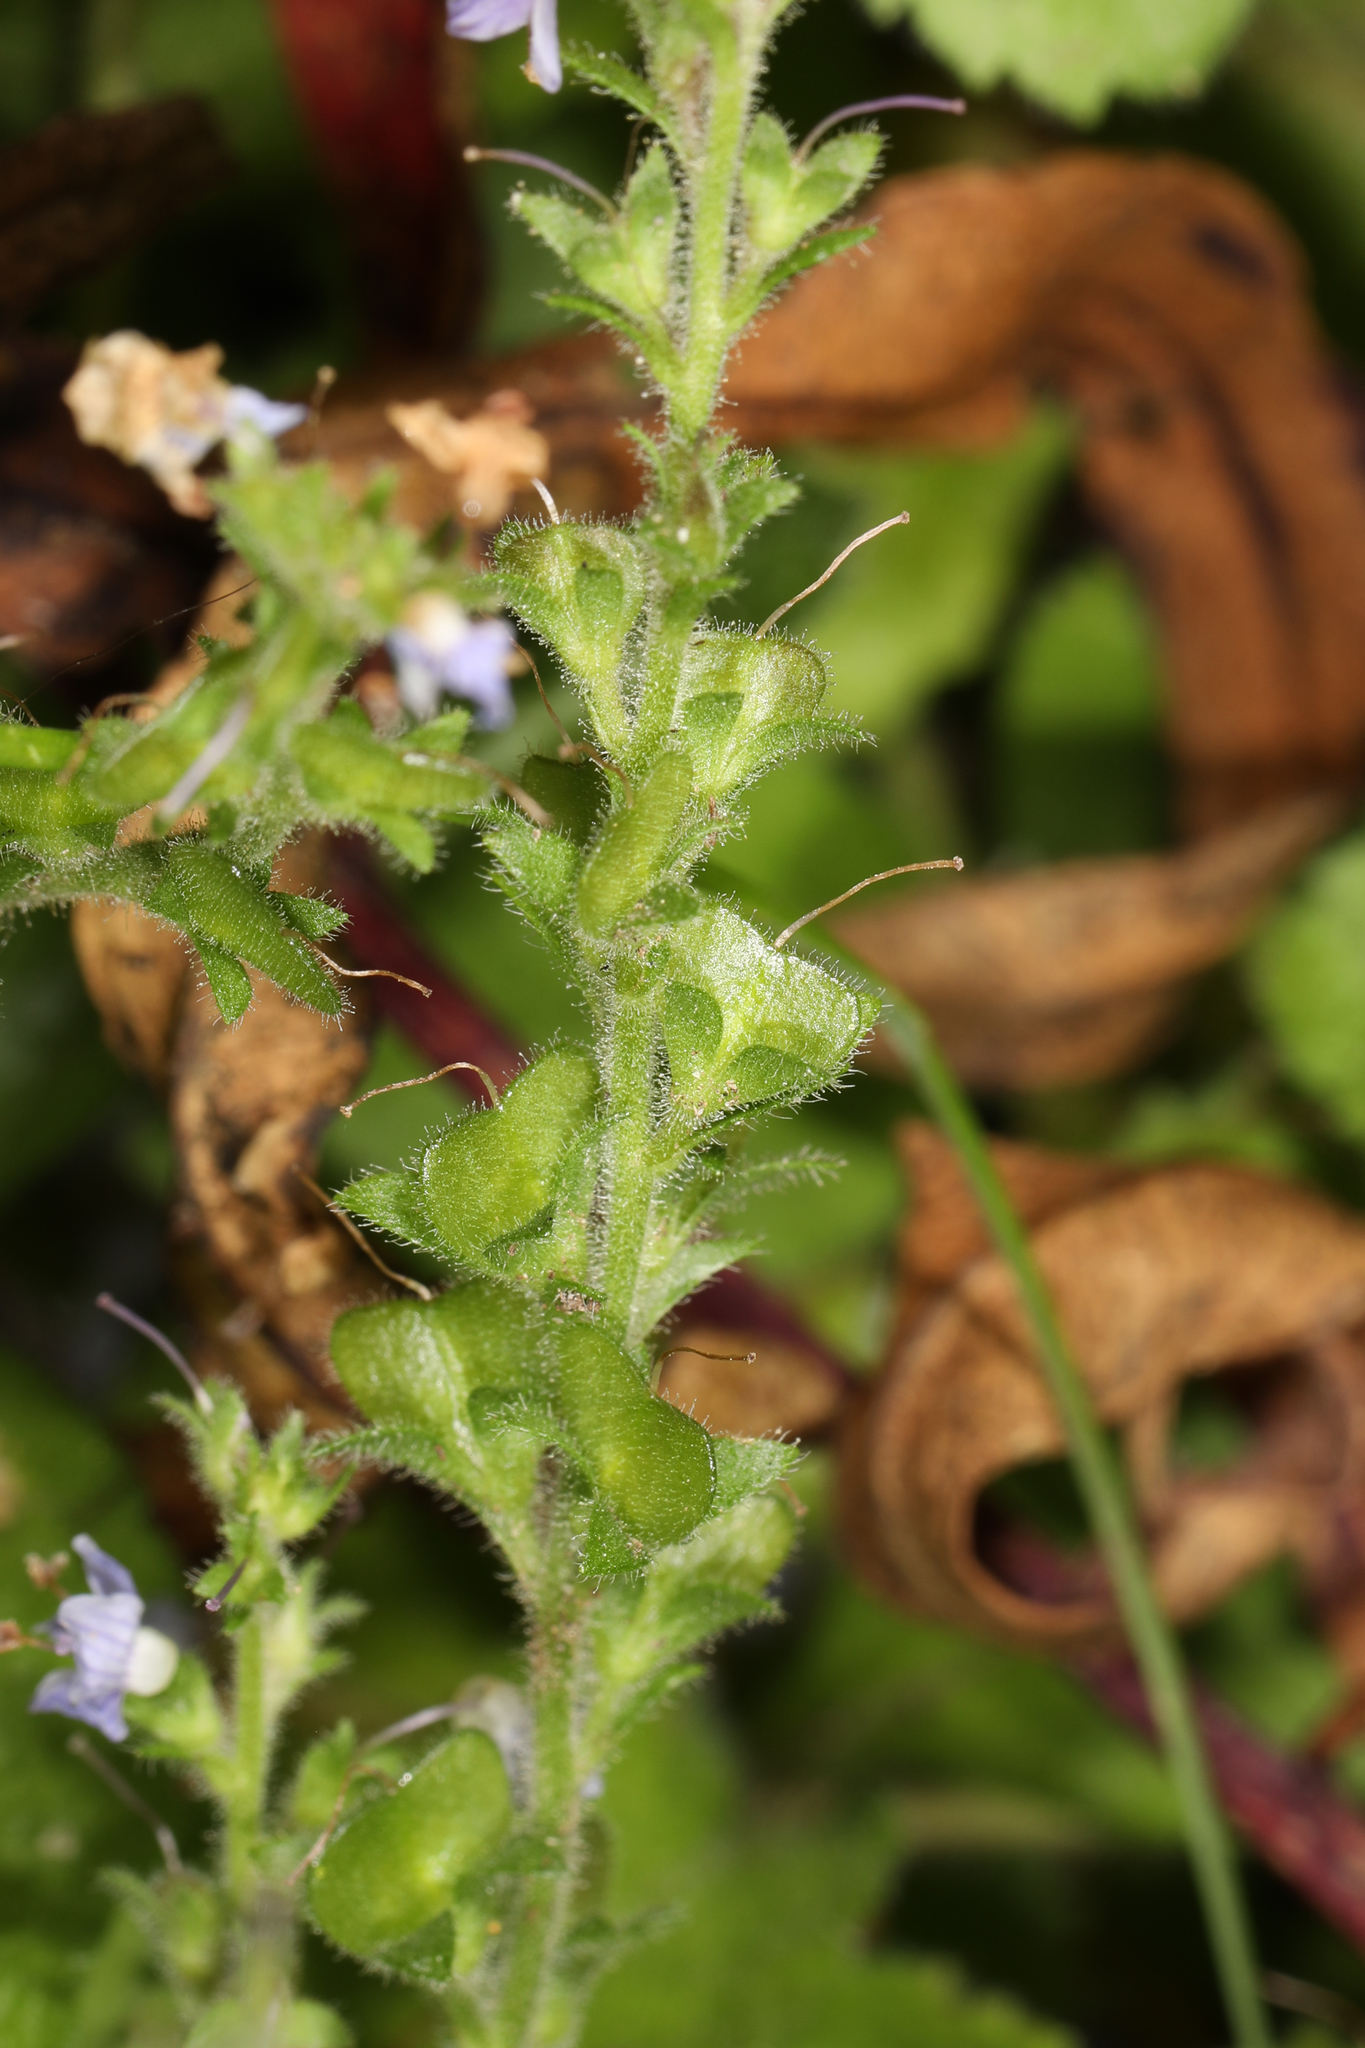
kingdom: Plantae
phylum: Tracheophyta
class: Magnoliopsida
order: Lamiales
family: Plantaginaceae
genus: Veronica
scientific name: Veronica officinalis
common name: Common speedwell
